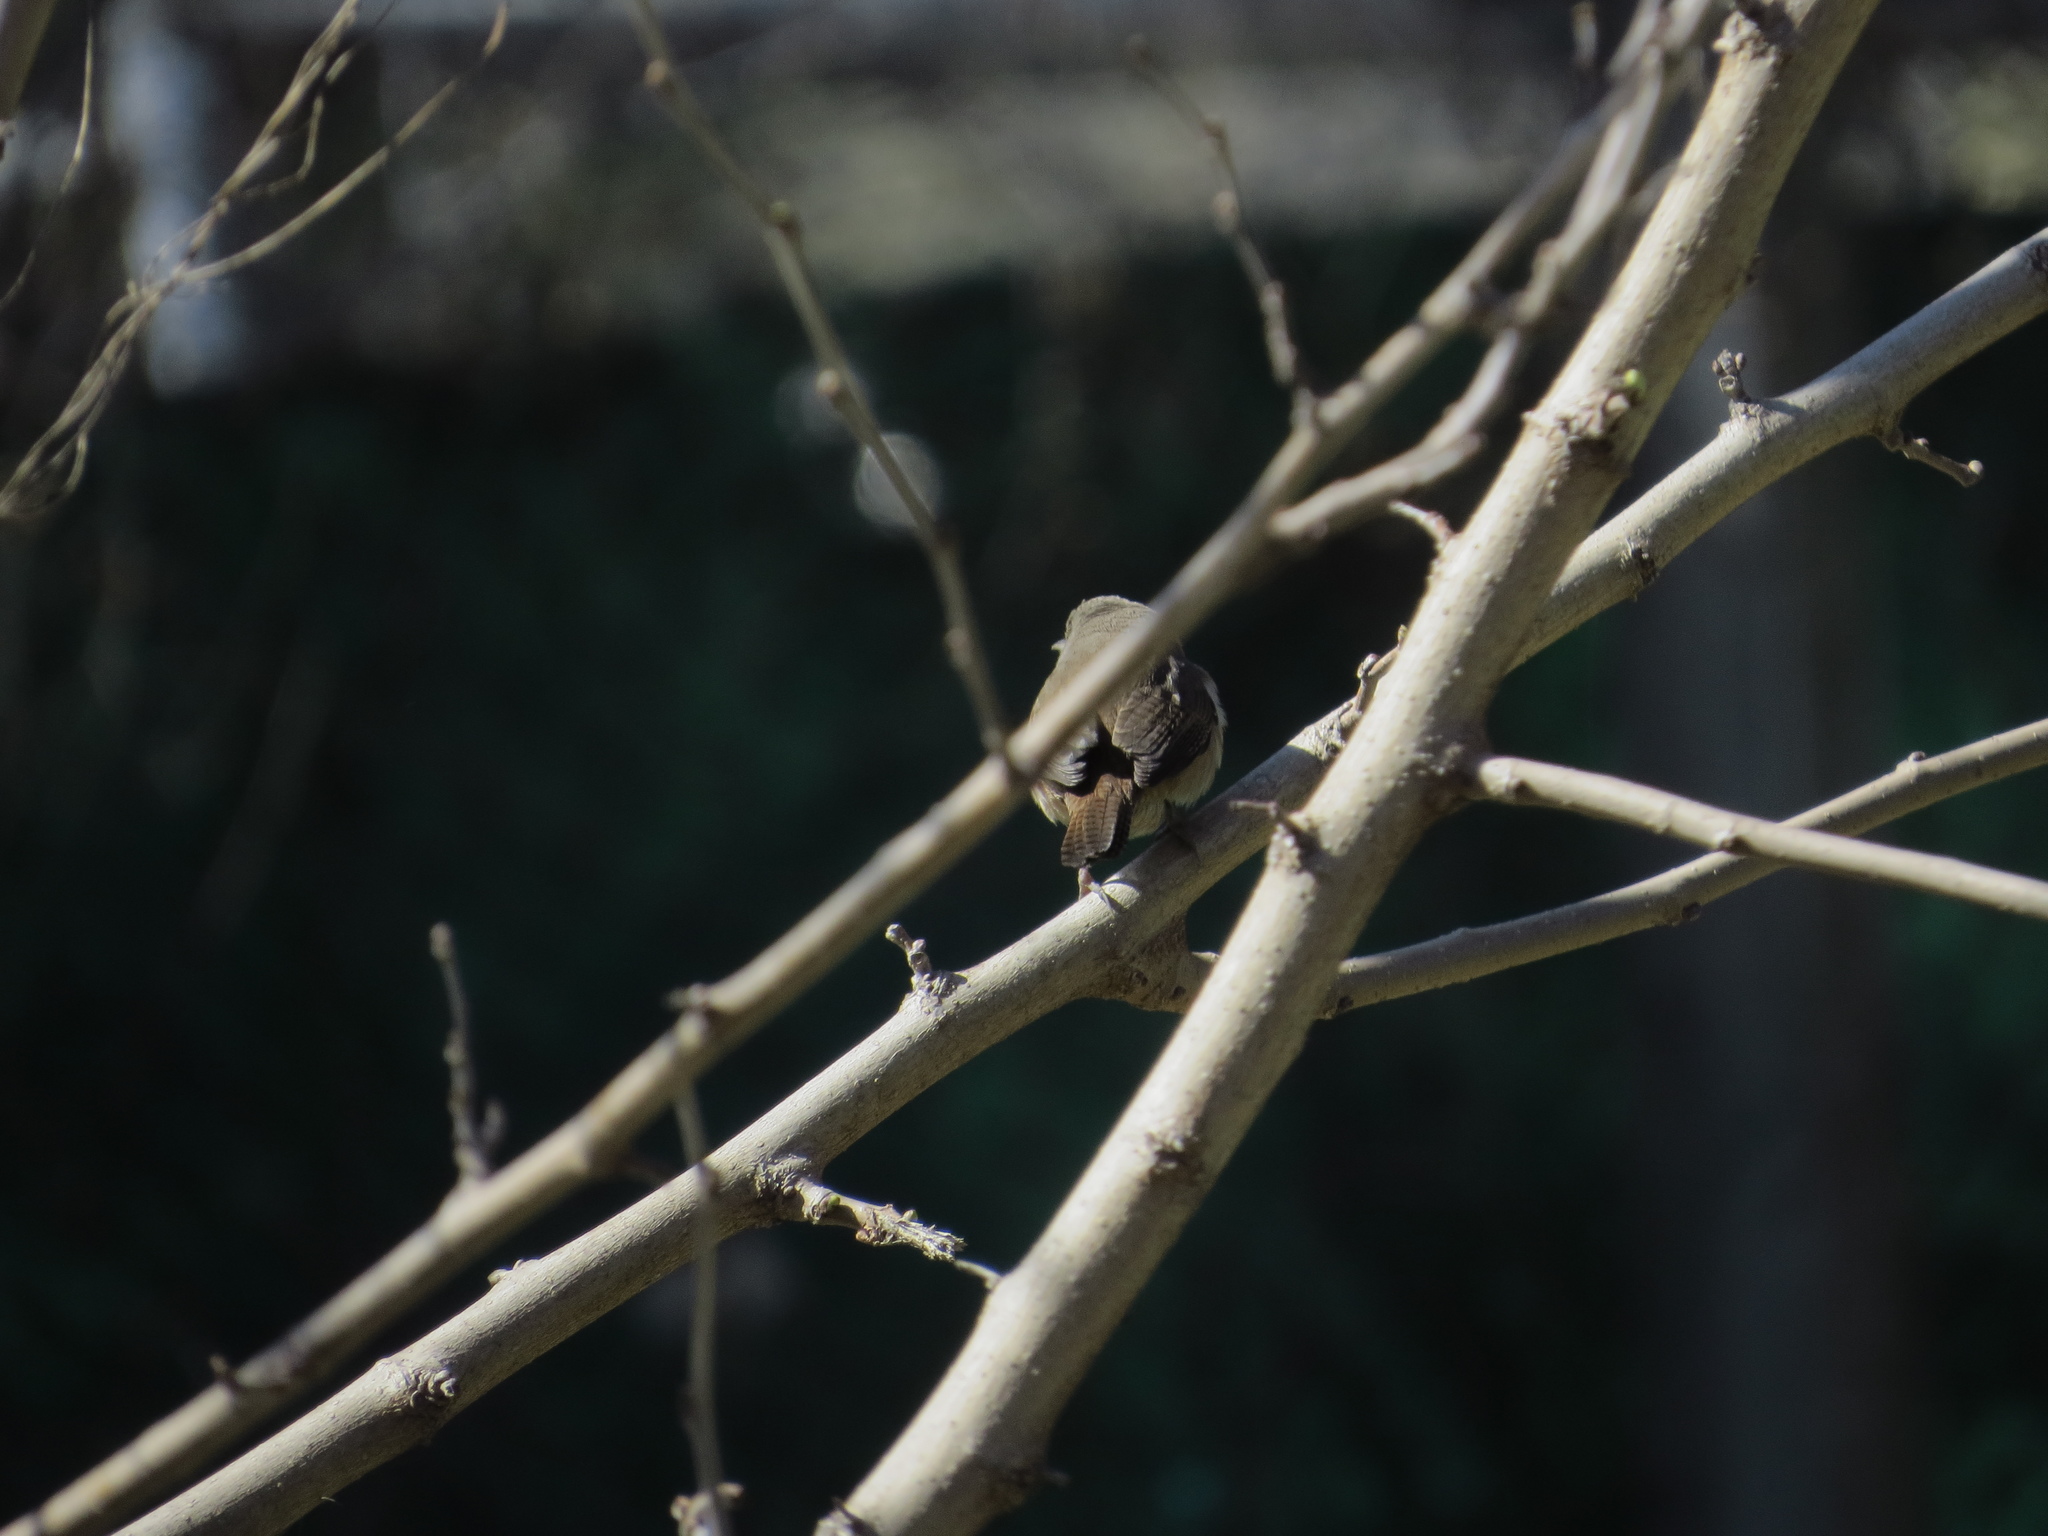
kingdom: Animalia
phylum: Chordata
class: Aves
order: Passeriformes
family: Troglodytidae
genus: Troglodytes
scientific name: Troglodytes aedon
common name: House wren
